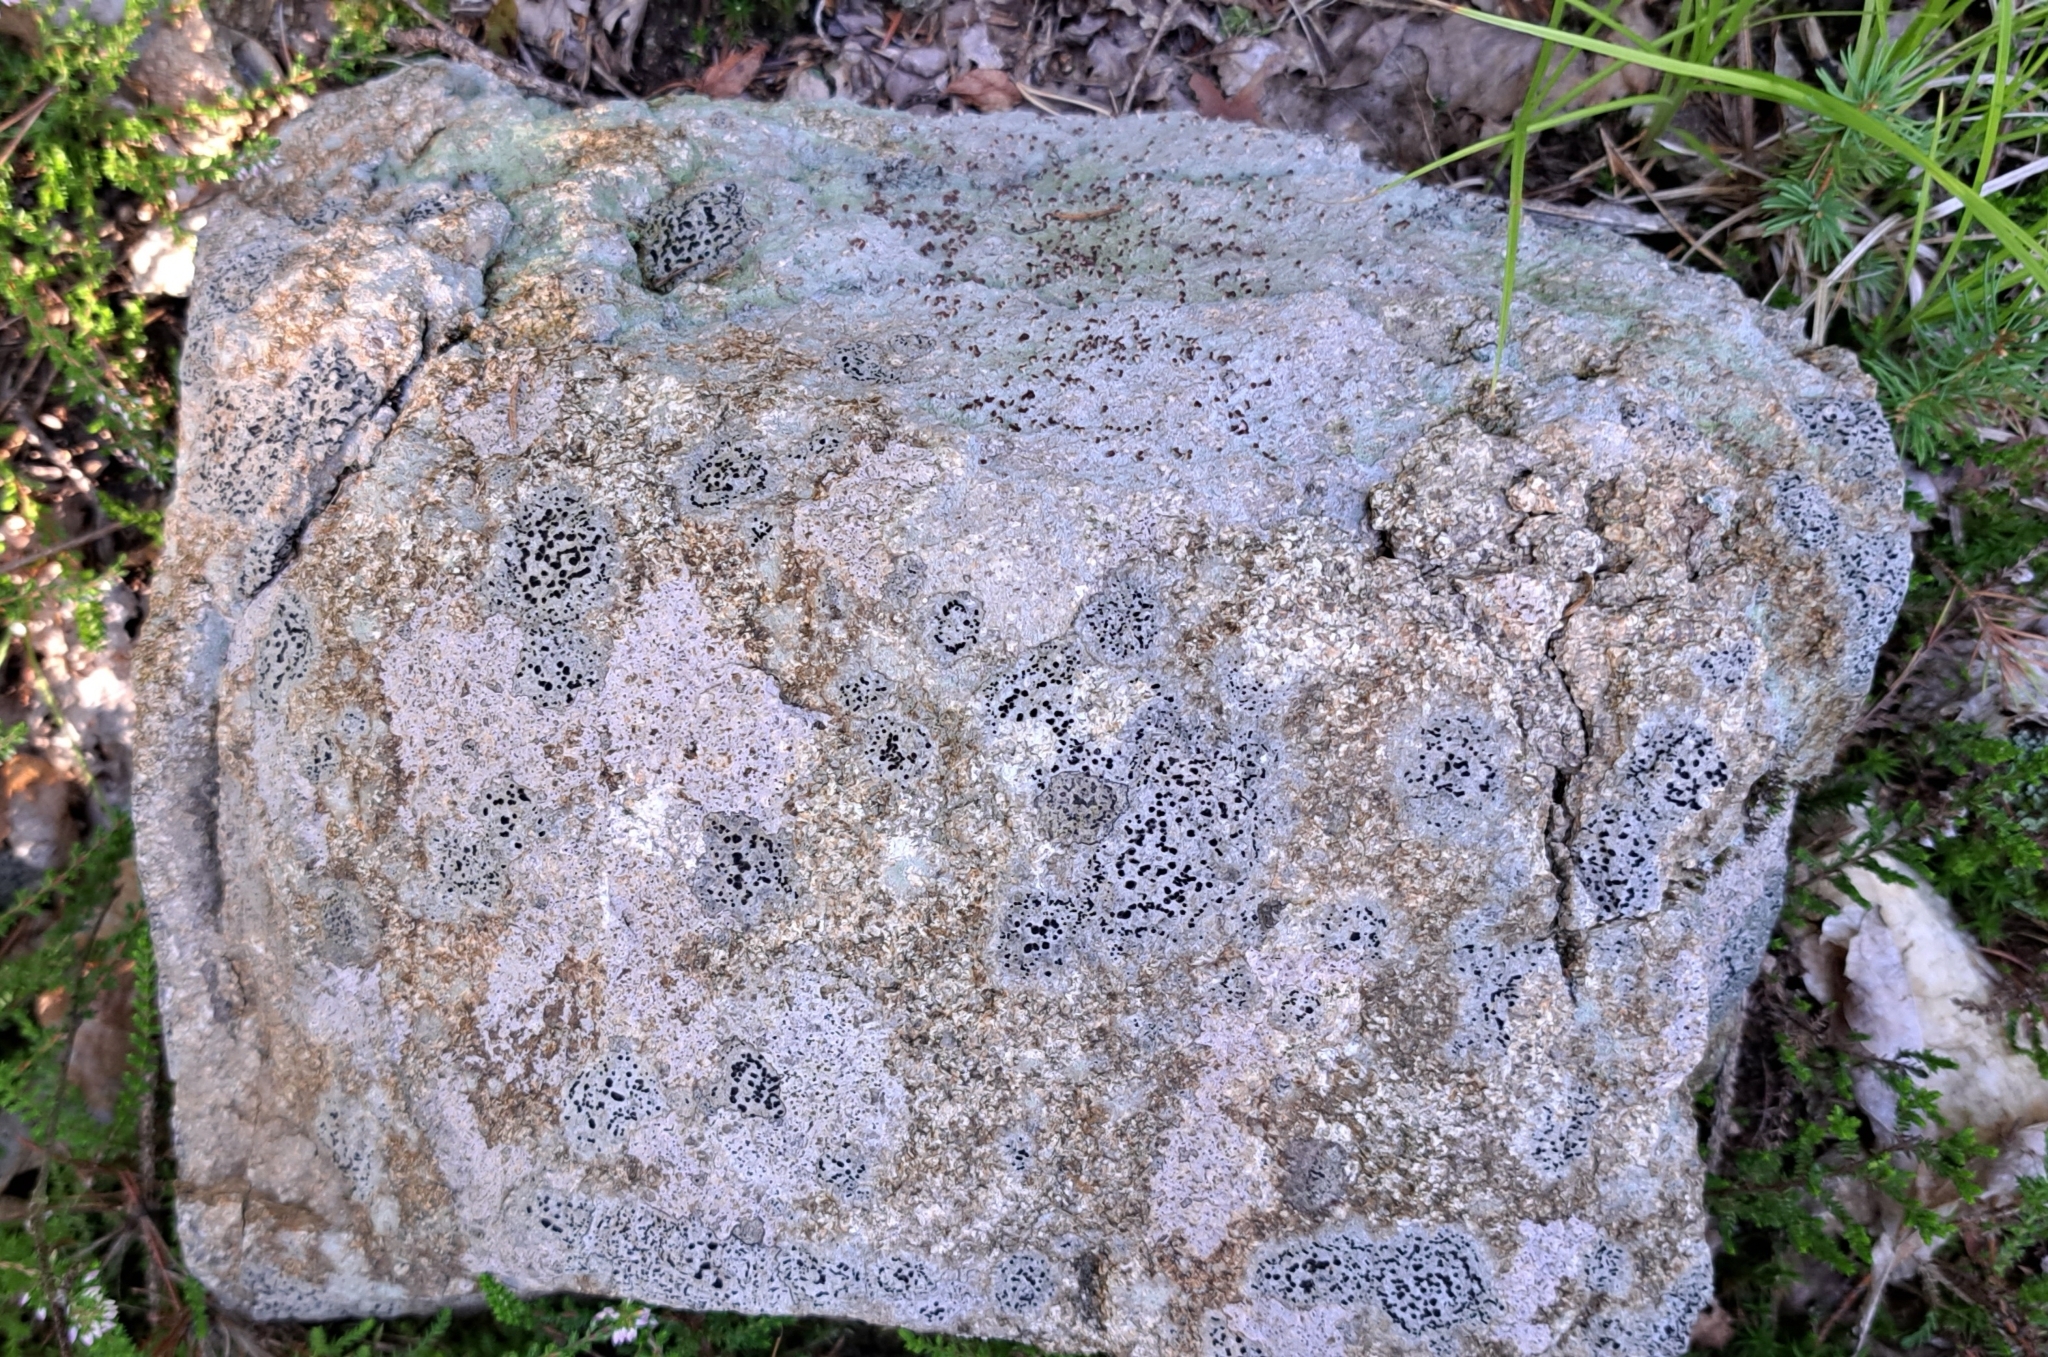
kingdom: Fungi
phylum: Ascomycota
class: Lecanoromycetes
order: Baeomycetales
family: Baeomycetaceae
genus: Baeomyces
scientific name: Baeomyces rufus
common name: Brown beret lichen
